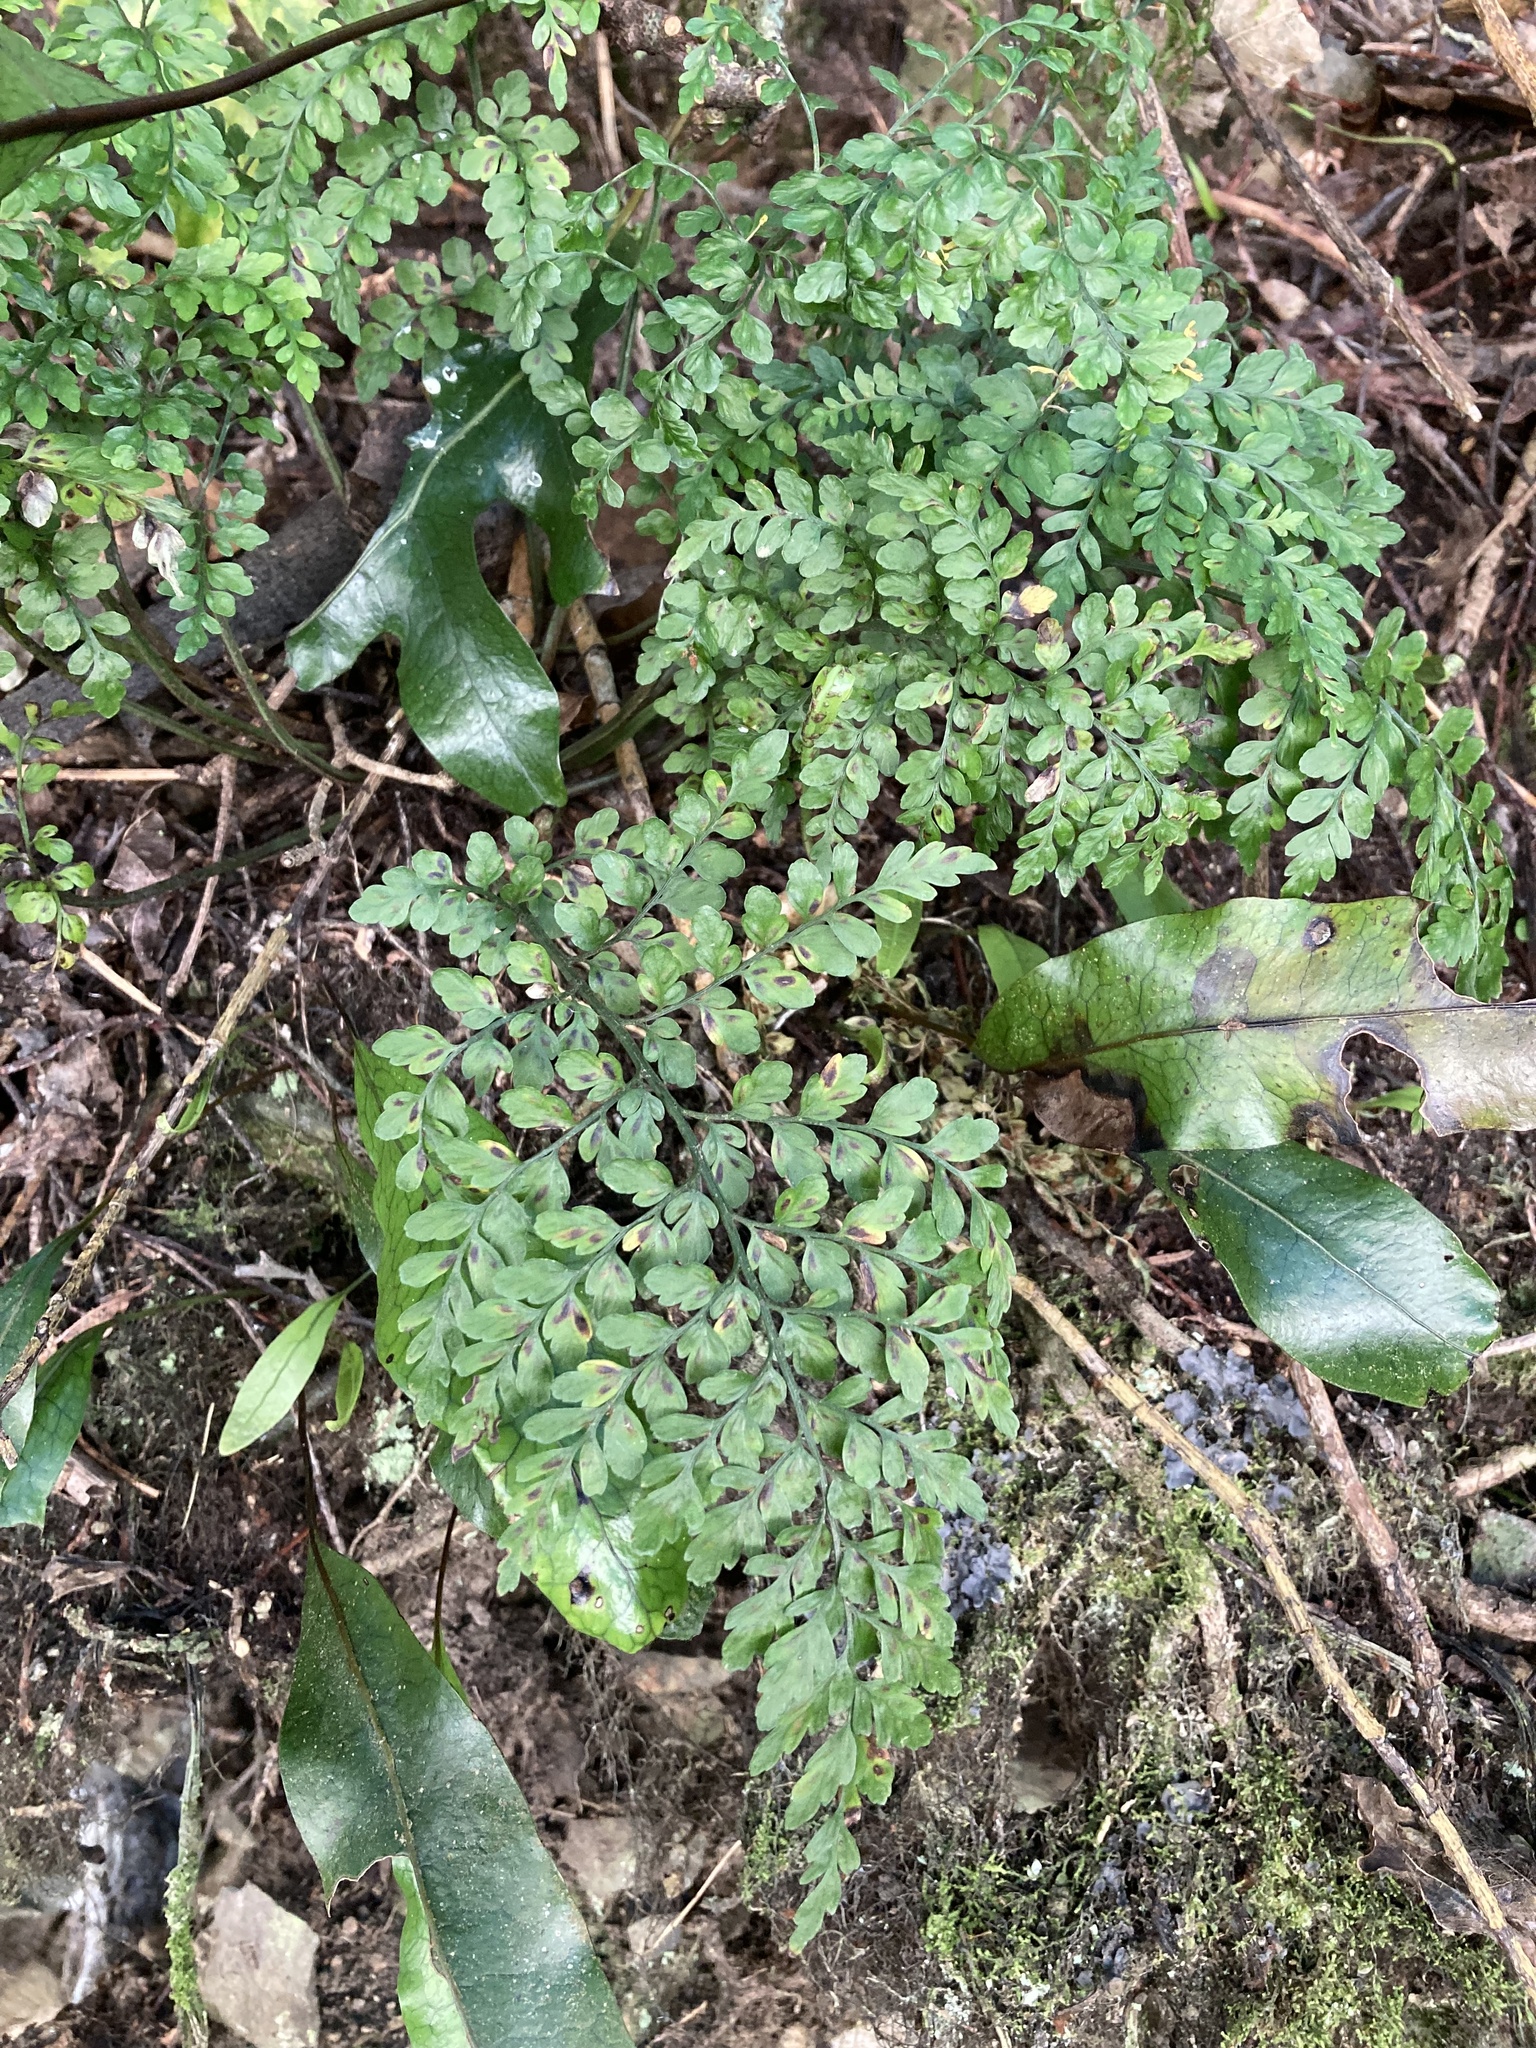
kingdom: Plantae
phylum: Tracheophyta
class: Polypodiopsida
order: Polypodiales
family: Aspleniaceae
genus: Asplenium
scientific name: Asplenium hookerianum
